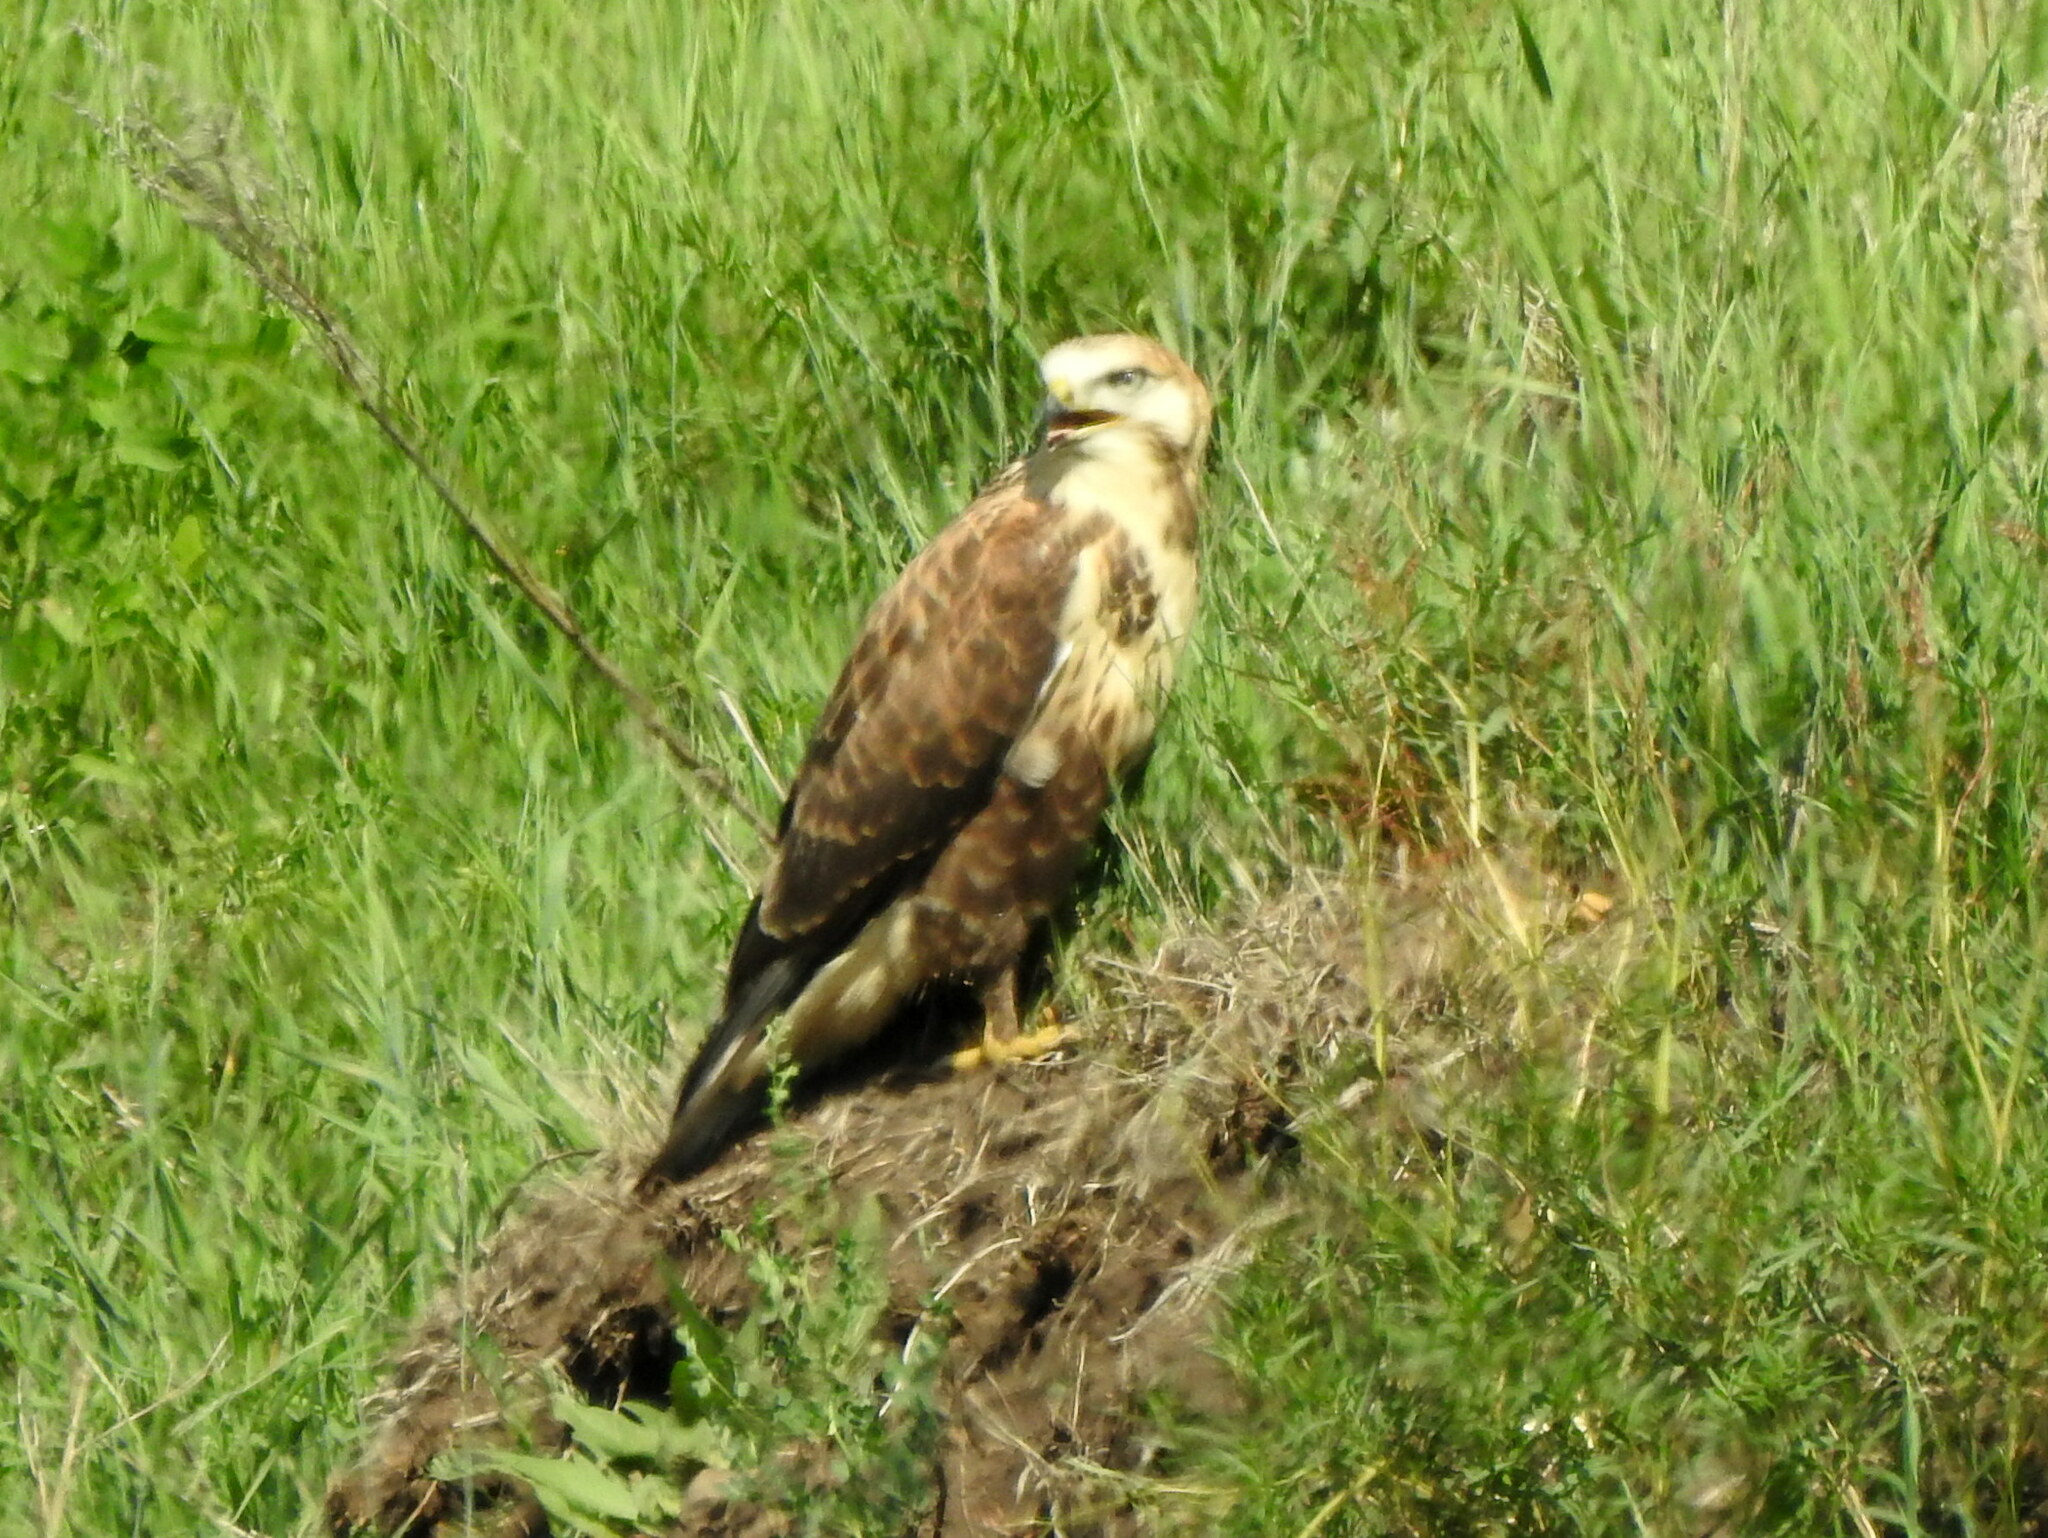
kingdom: Animalia
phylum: Chordata
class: Aves
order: Accipitriformes
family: Accipitridae
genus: Buteo
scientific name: Buteo hemilasius
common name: Upland buzzard
